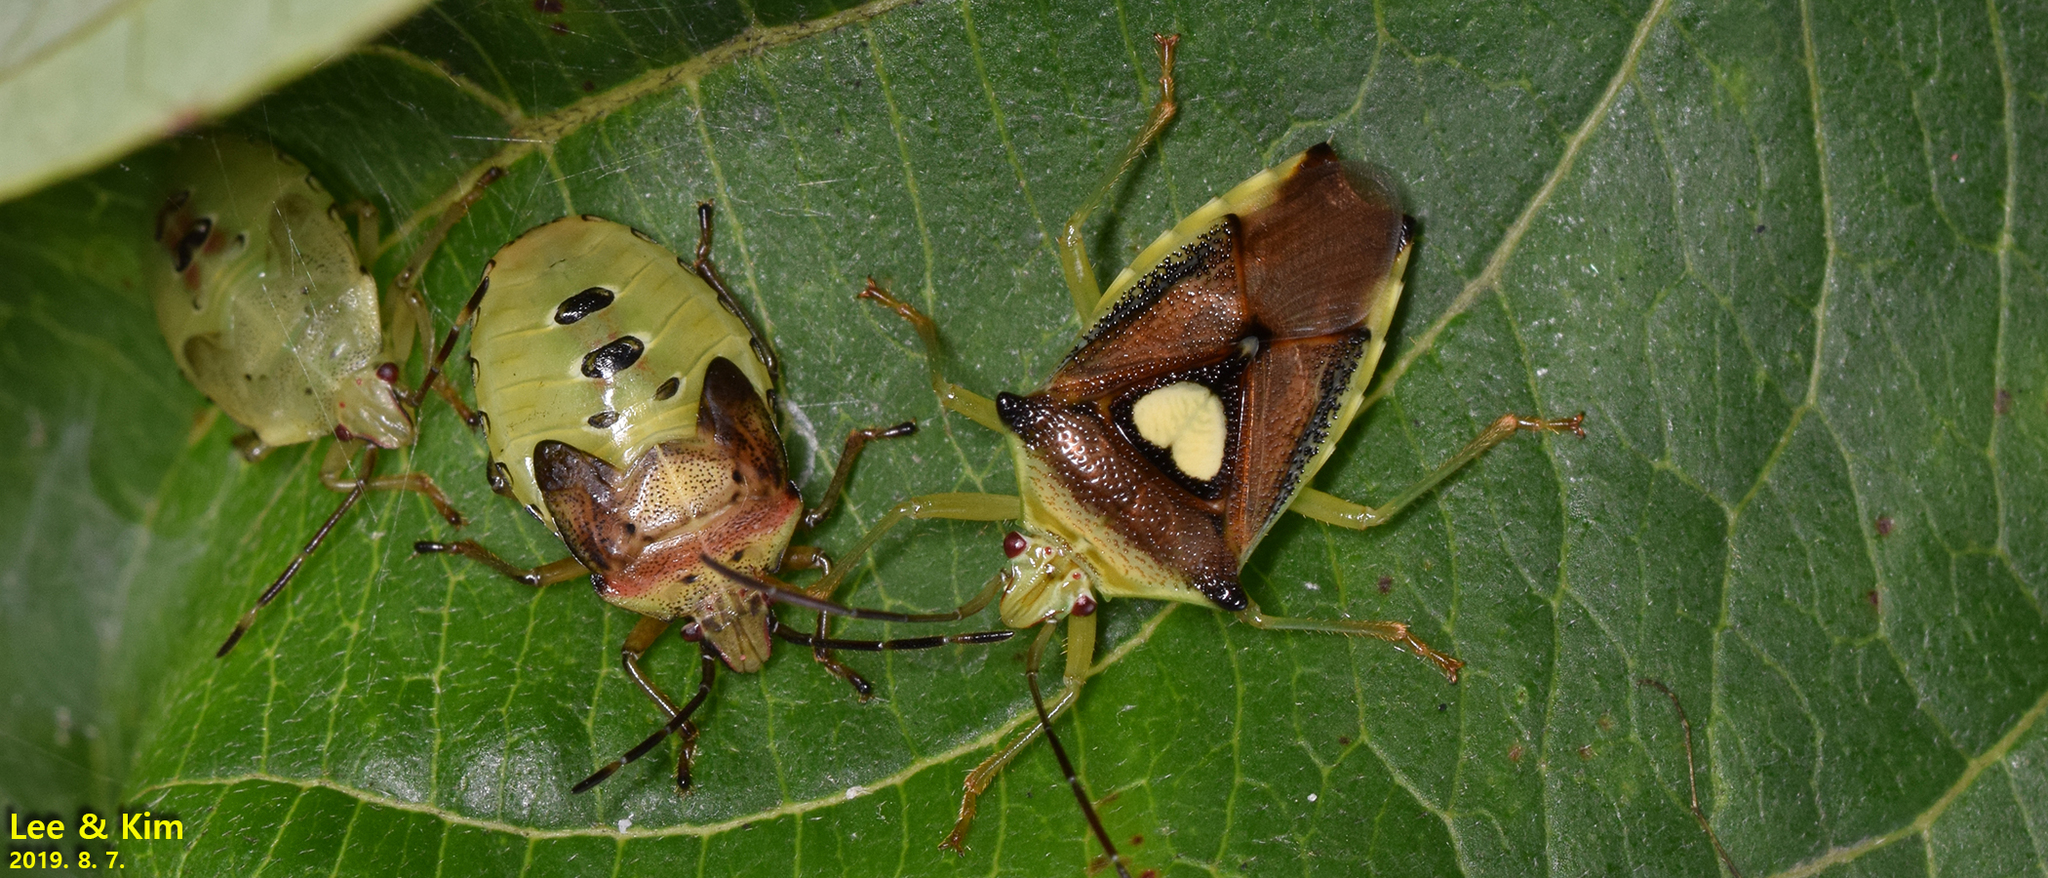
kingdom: Animalia
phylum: Arthropoda
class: Insecta
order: Hemiptera
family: Acanthosomatidae
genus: Sastragala
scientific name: Sastragala esakii
